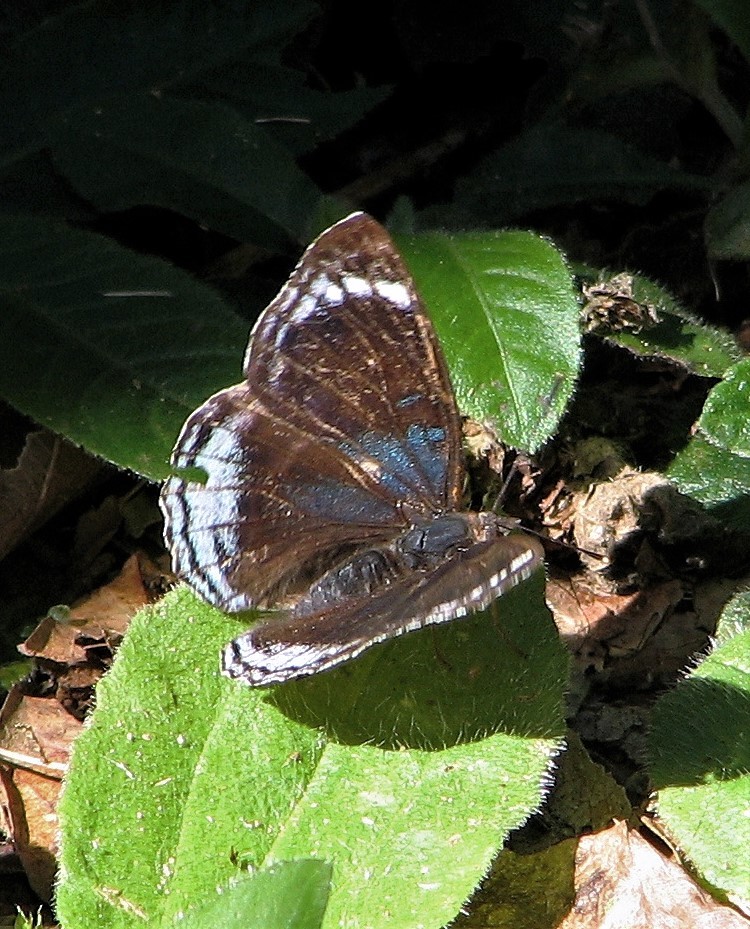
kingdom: Animalia
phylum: Arthropoda
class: Insecta
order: Lepidoptera
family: Nymphalidae
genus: Doxocopa
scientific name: Doxocopa zunilda
